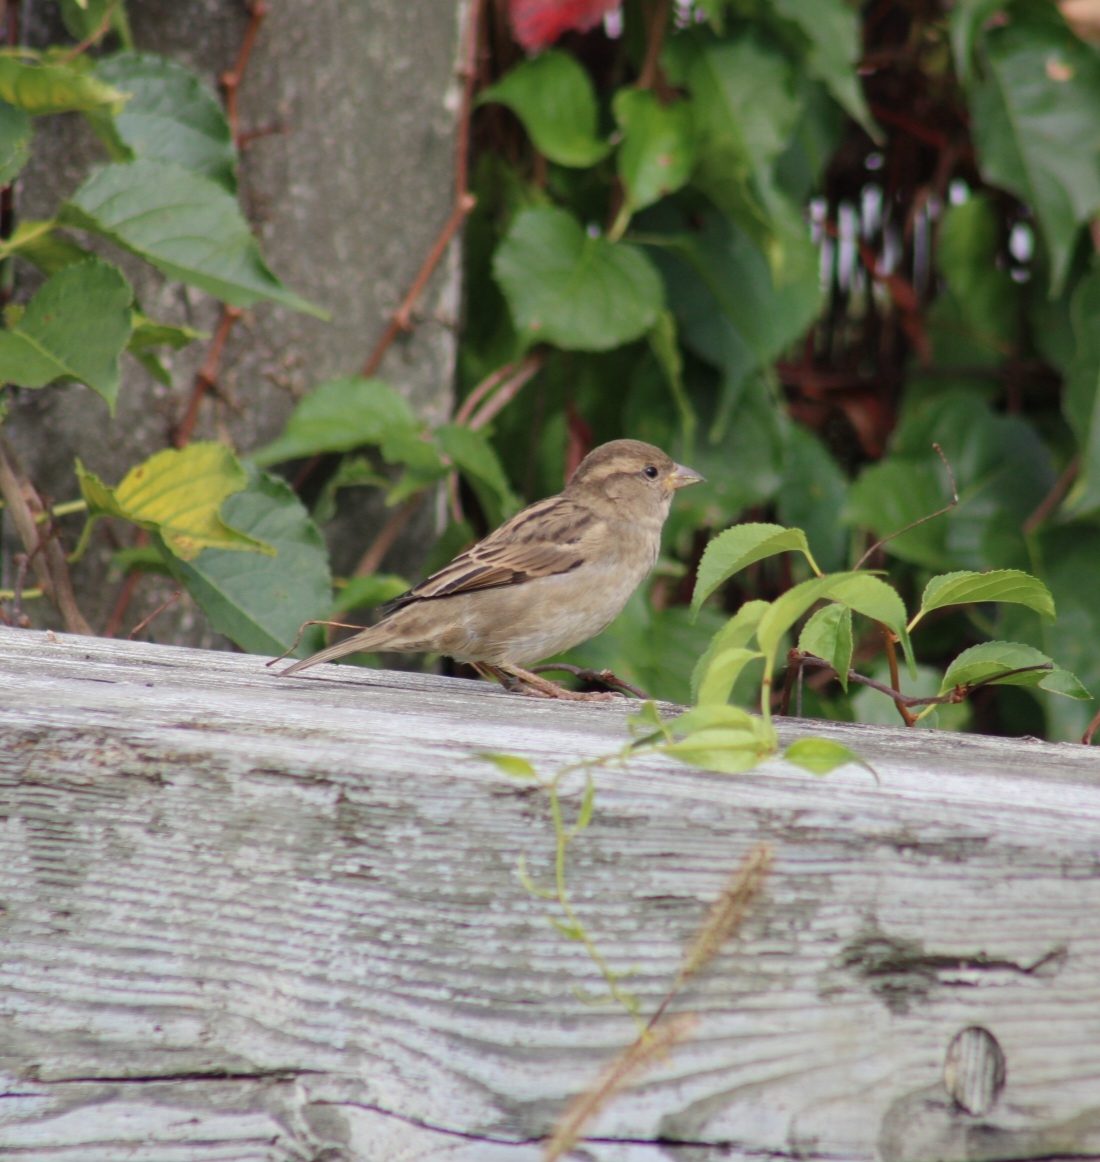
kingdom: Animalia
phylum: Chordata
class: Aves
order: Passeriformes
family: Passeridae
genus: Passer
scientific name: Passer domesticus
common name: House sparrow
